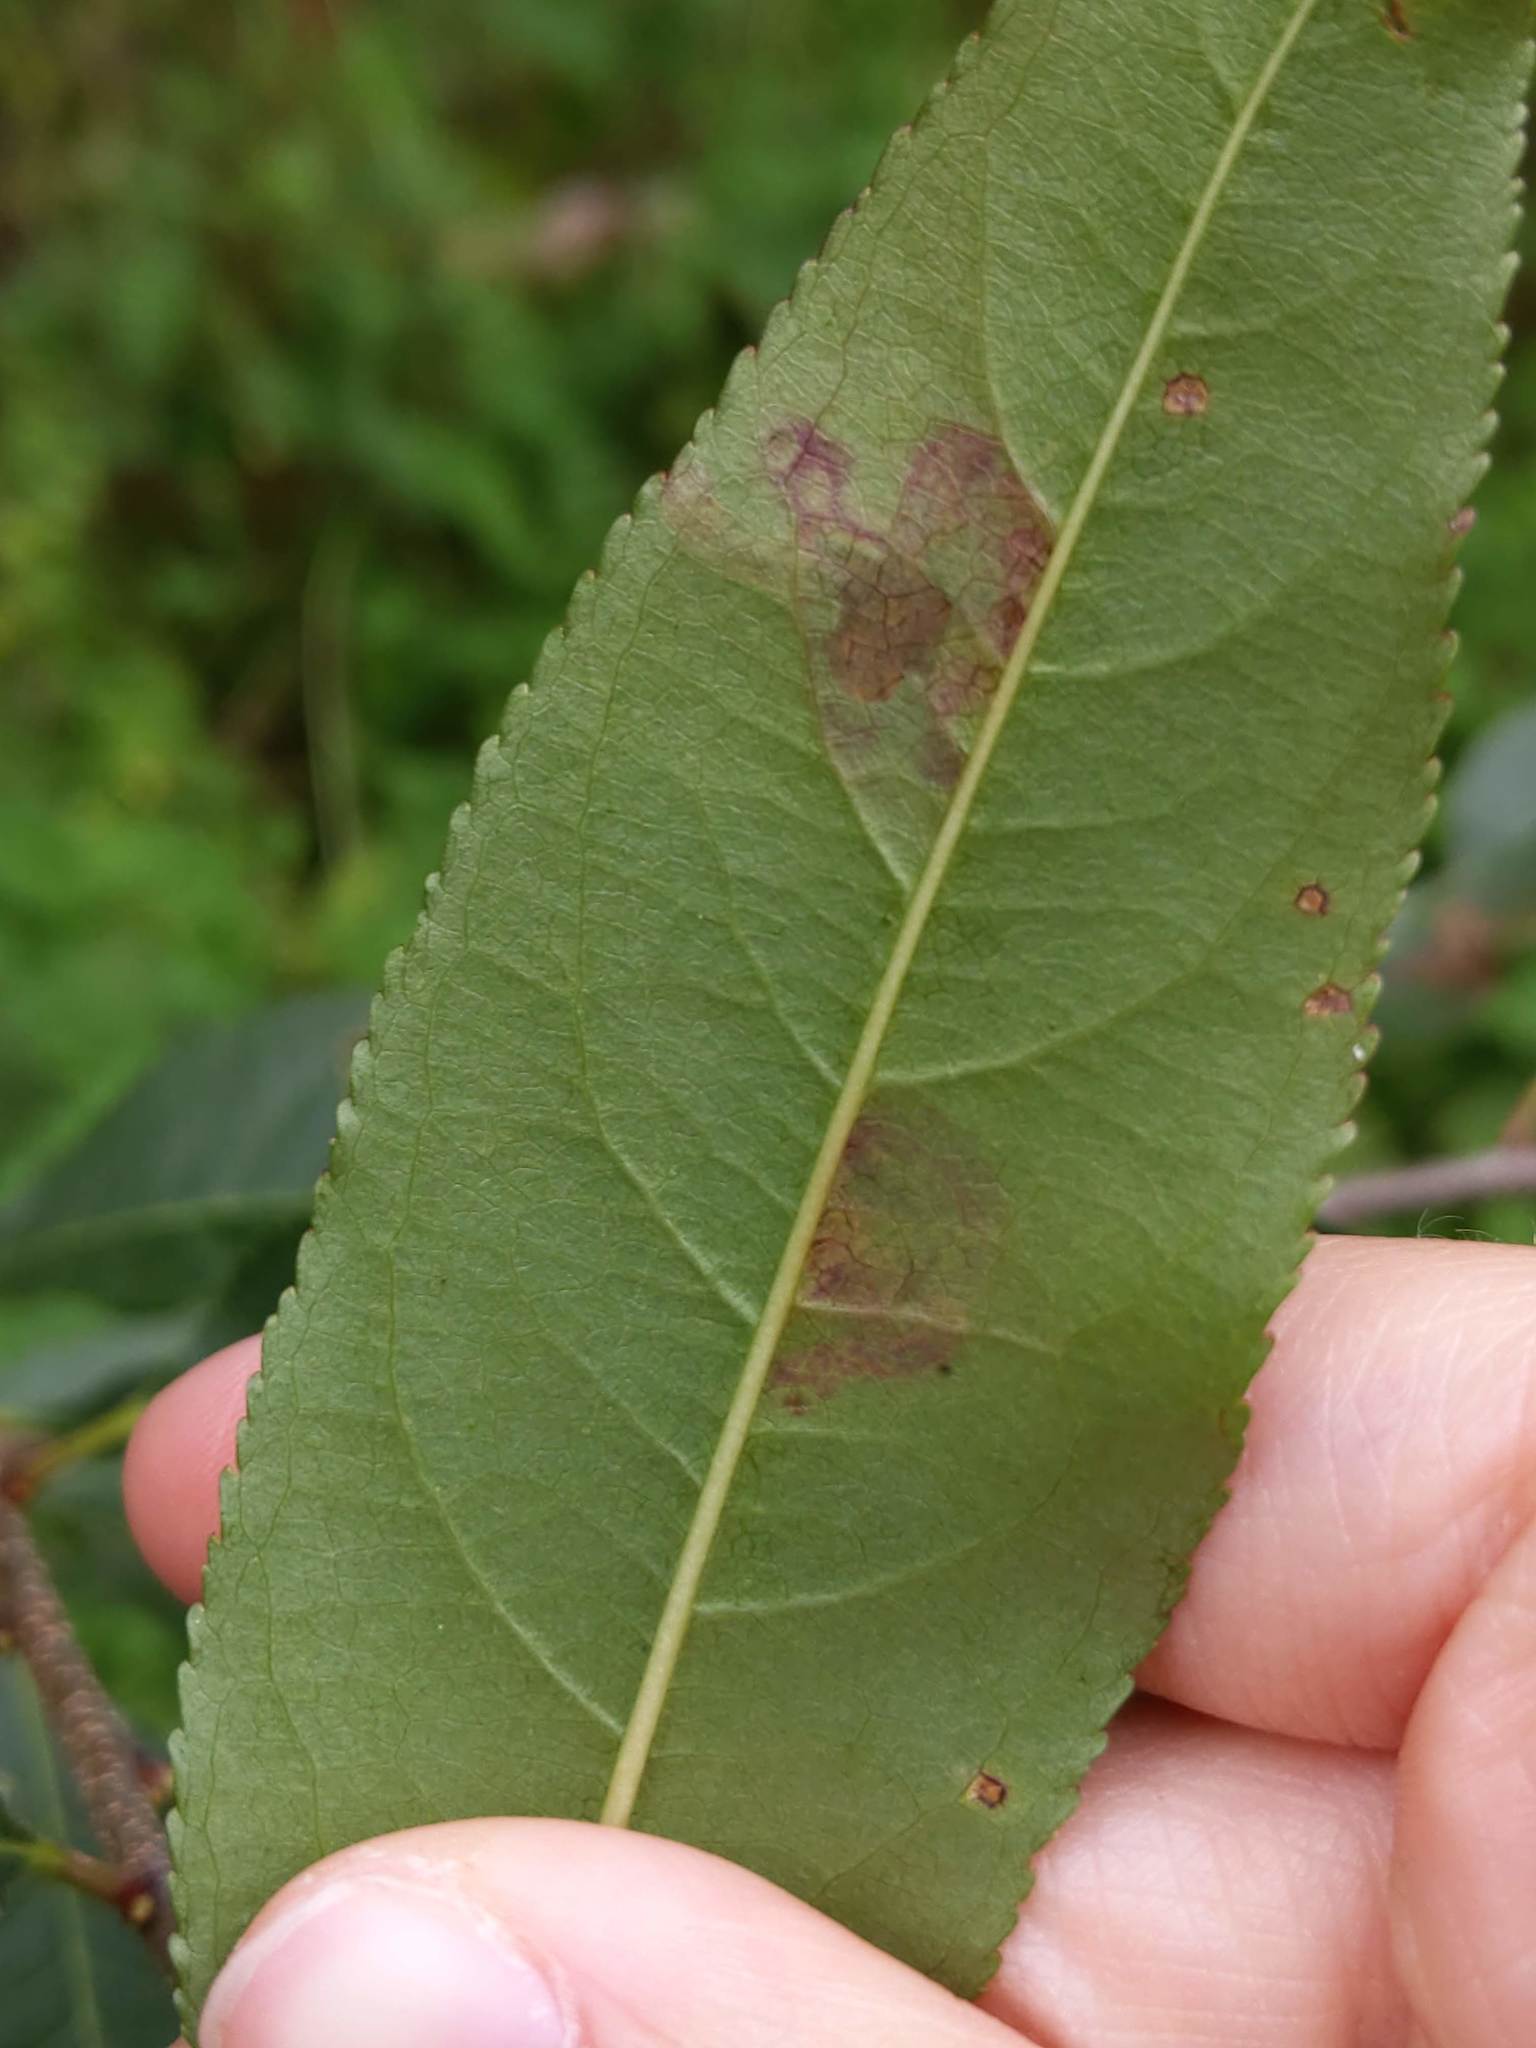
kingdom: Animalia
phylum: Arthropoda
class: Insecta
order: Lepidoptera
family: Nepticulidae
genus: Stigmella
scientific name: Stigmella prunifoliella
